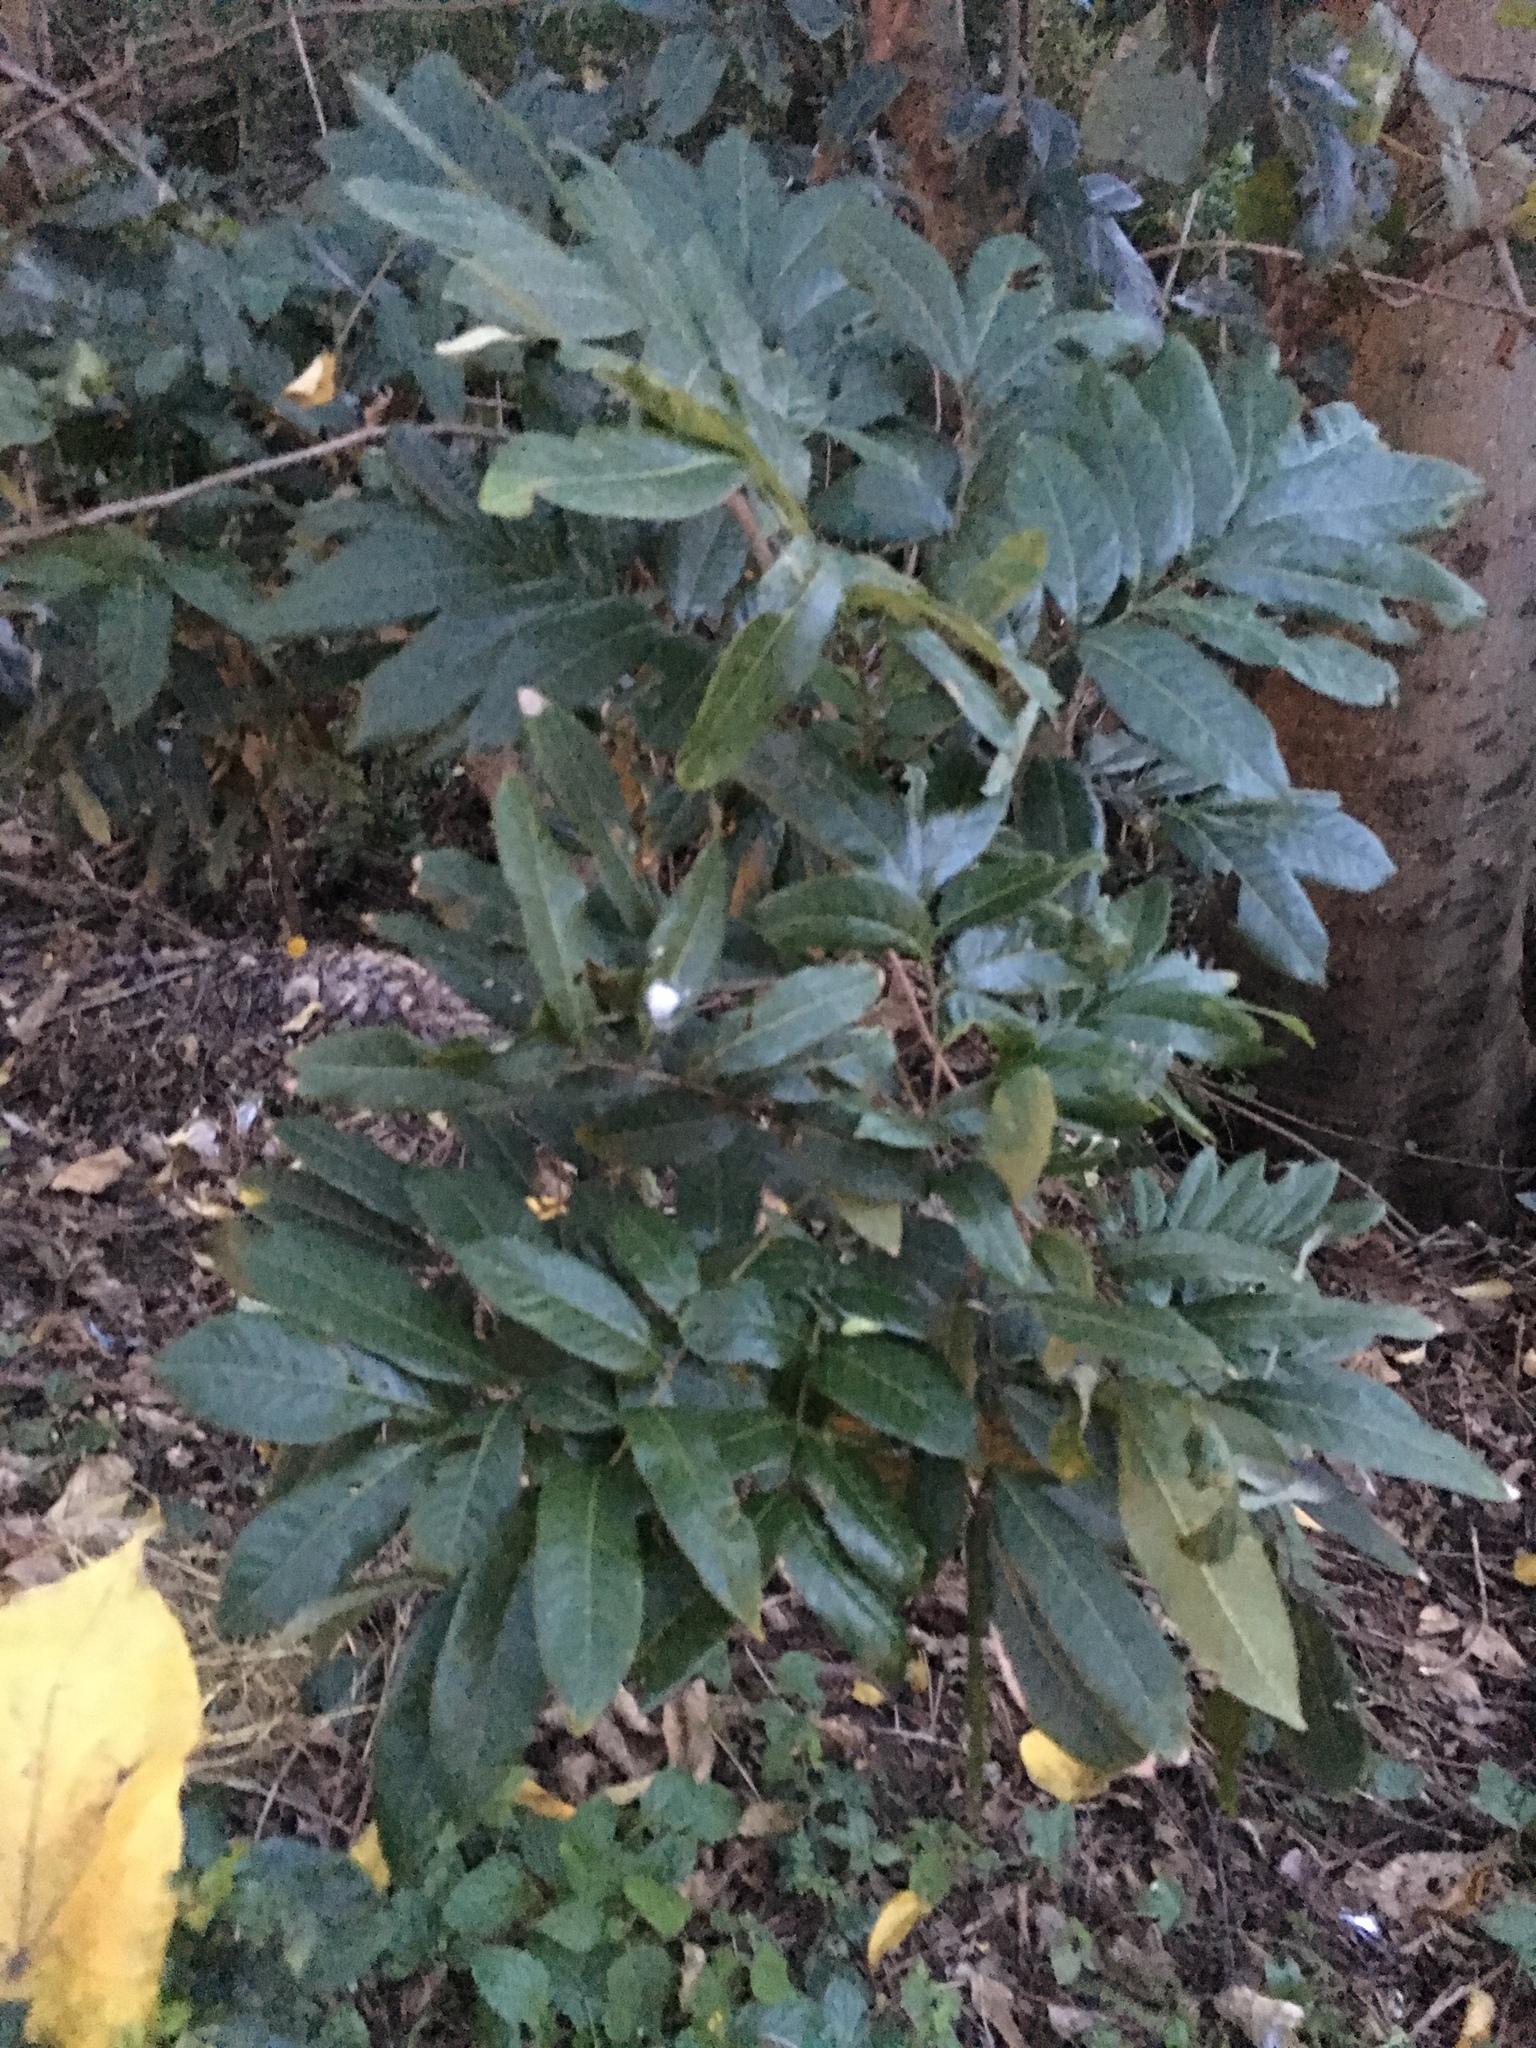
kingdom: Plantae
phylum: Tracheophyta
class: Magnoliopsida
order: Sapindales
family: Sapindaceae
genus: Dimocarpus
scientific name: Dimocarpus longan
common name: Longan
